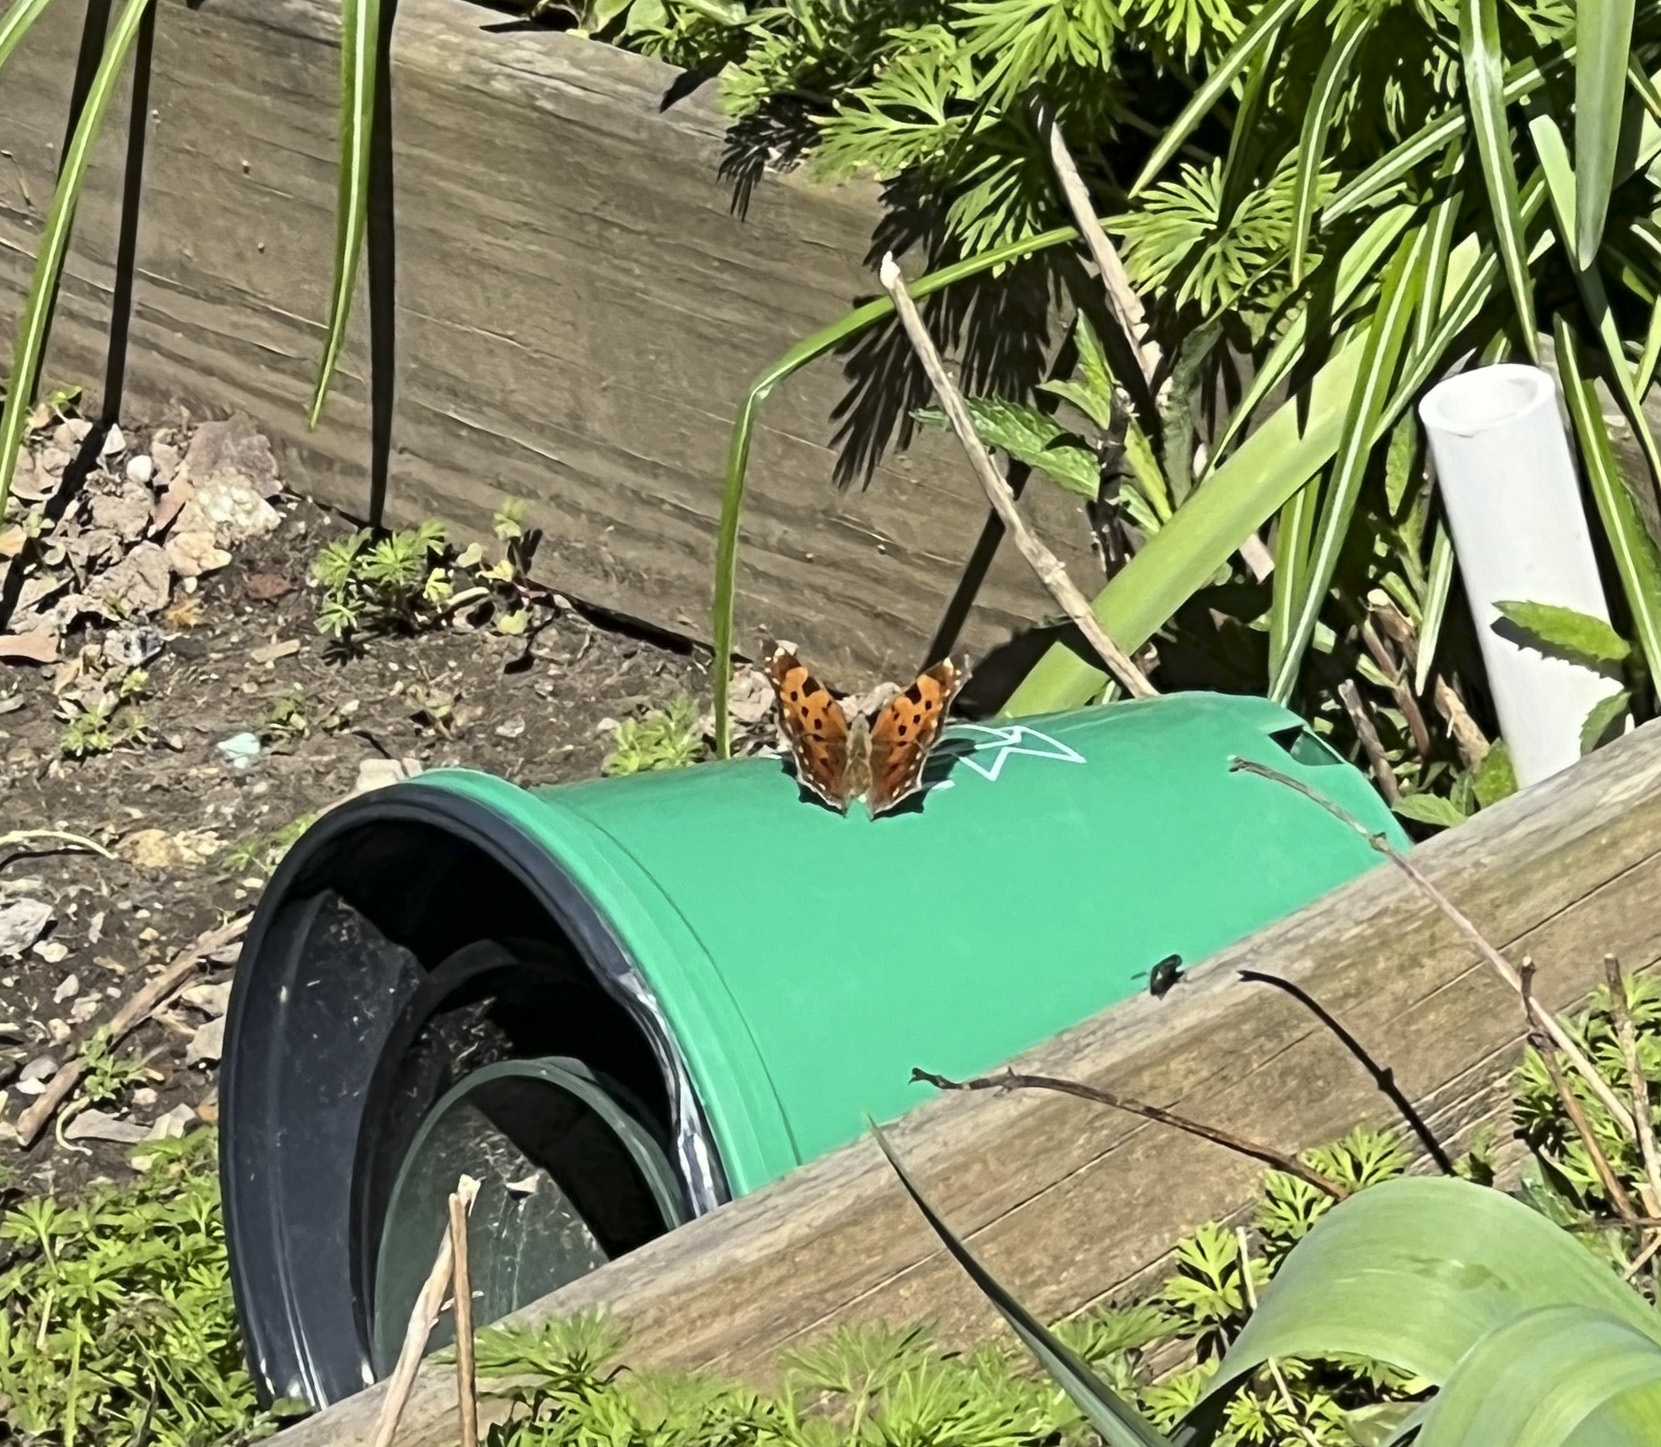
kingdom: Animalia
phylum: Arthropoda
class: Insecta
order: Lepidoptera
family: Nymphalidae
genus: Polygonia
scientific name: Polygonia comma
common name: Eastern comma
